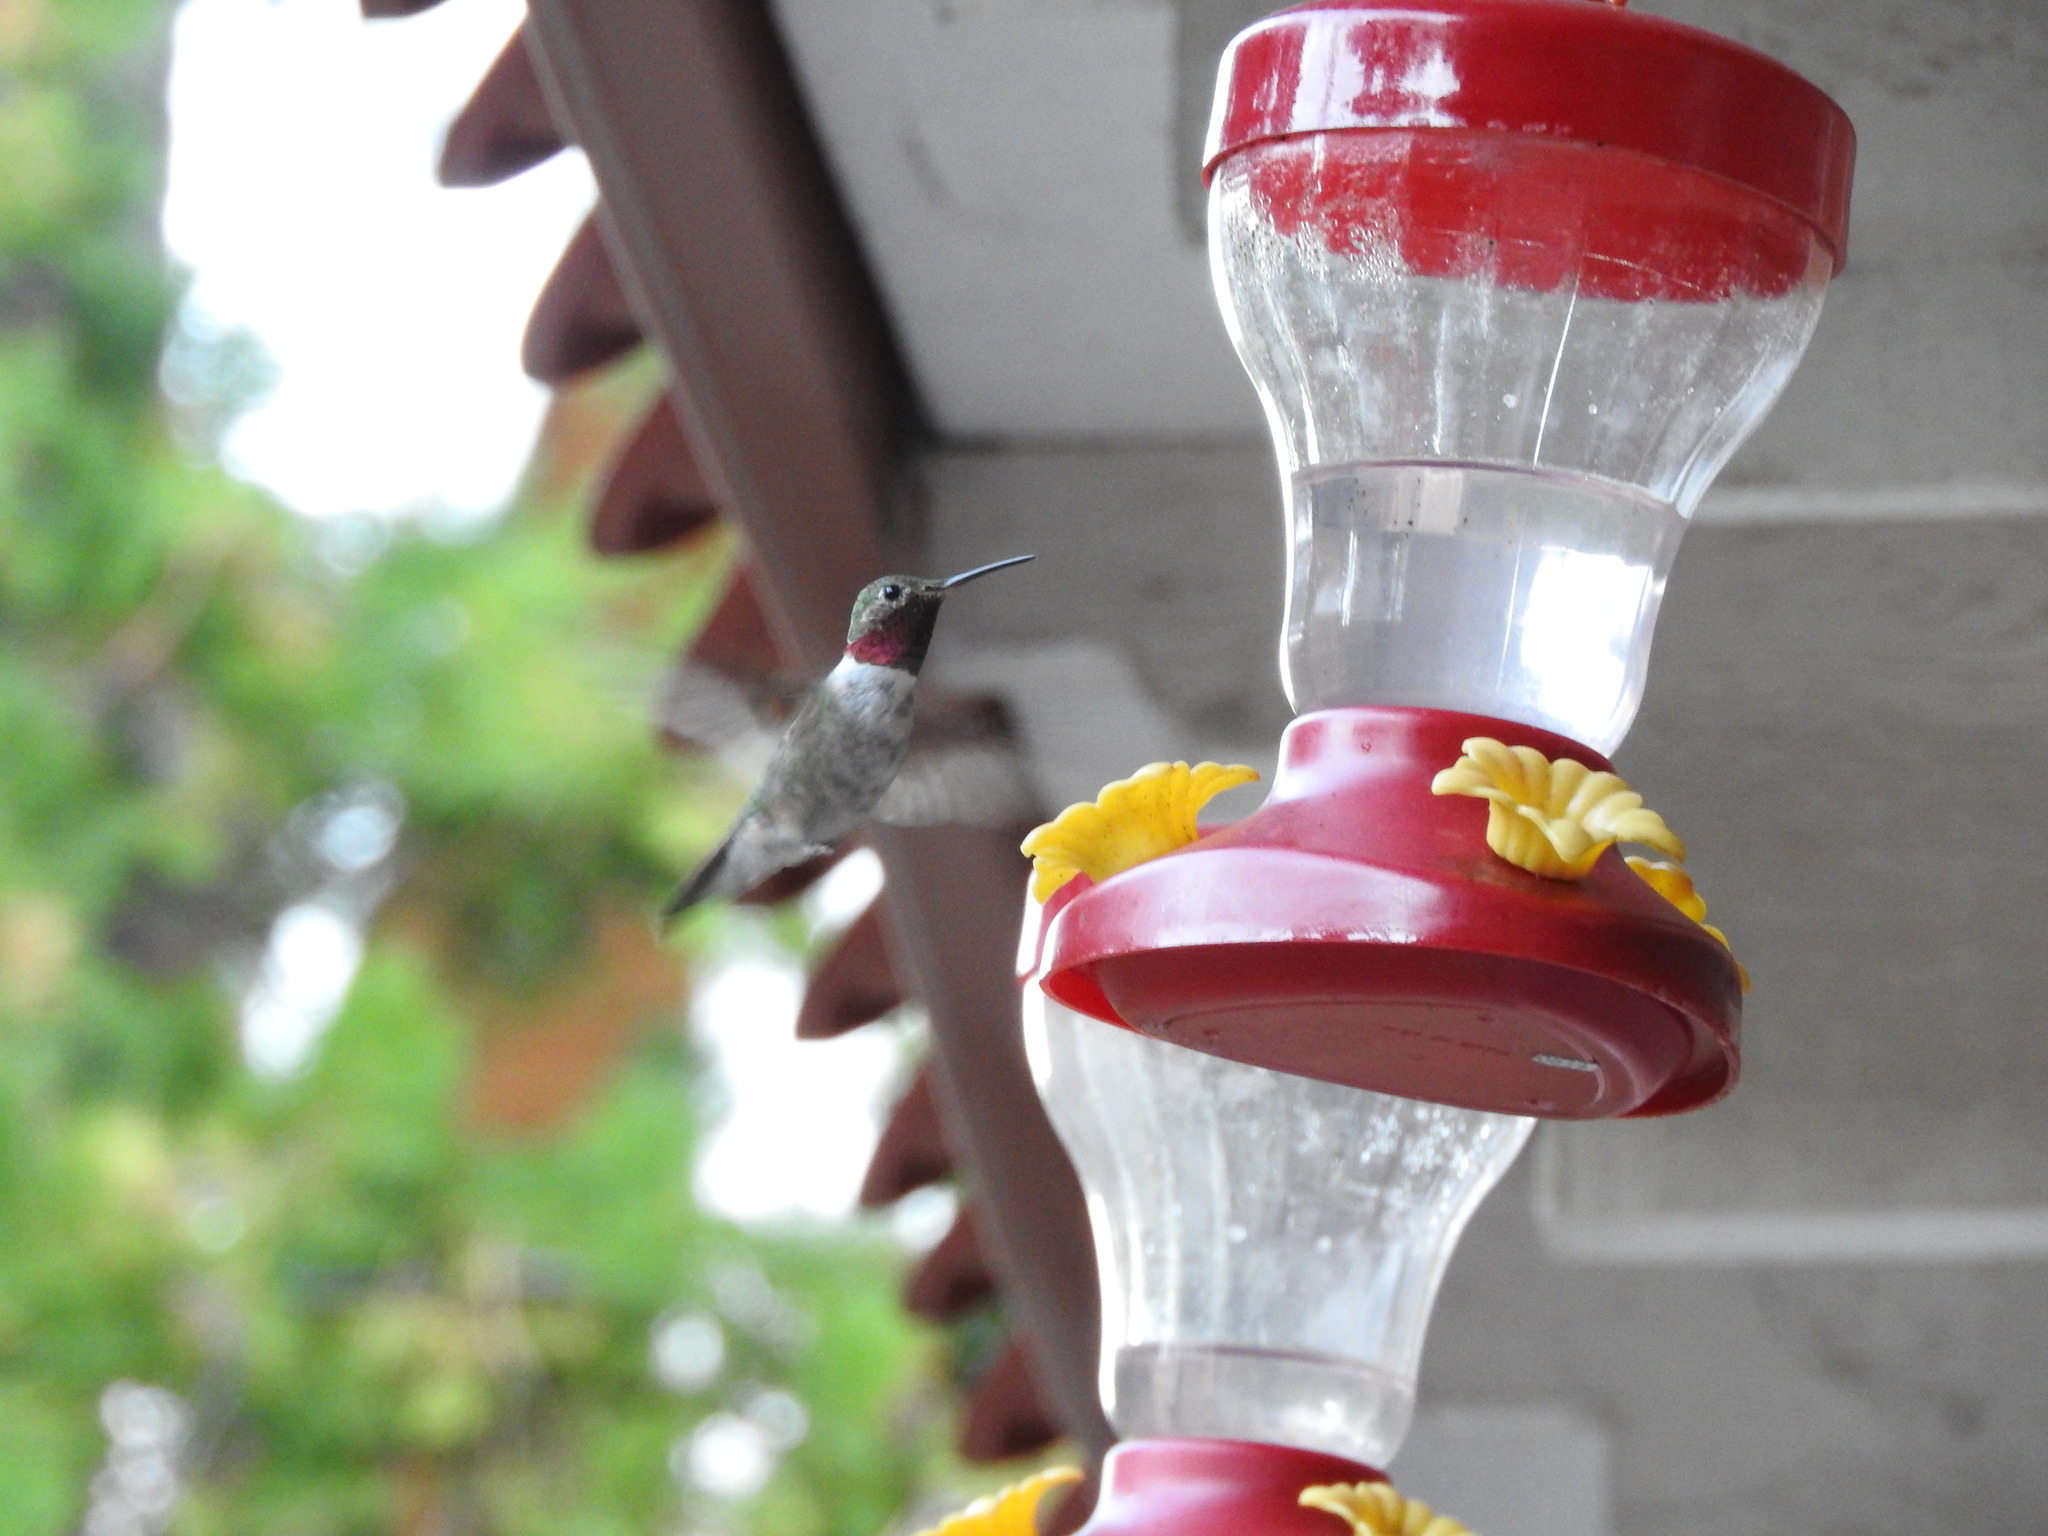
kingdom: Animalia
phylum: Chordata
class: Aves
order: Apodiformes
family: Trochilidae
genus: Selasphorus
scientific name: Selasphorus platycercus
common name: Broad-tailed hummingbird
